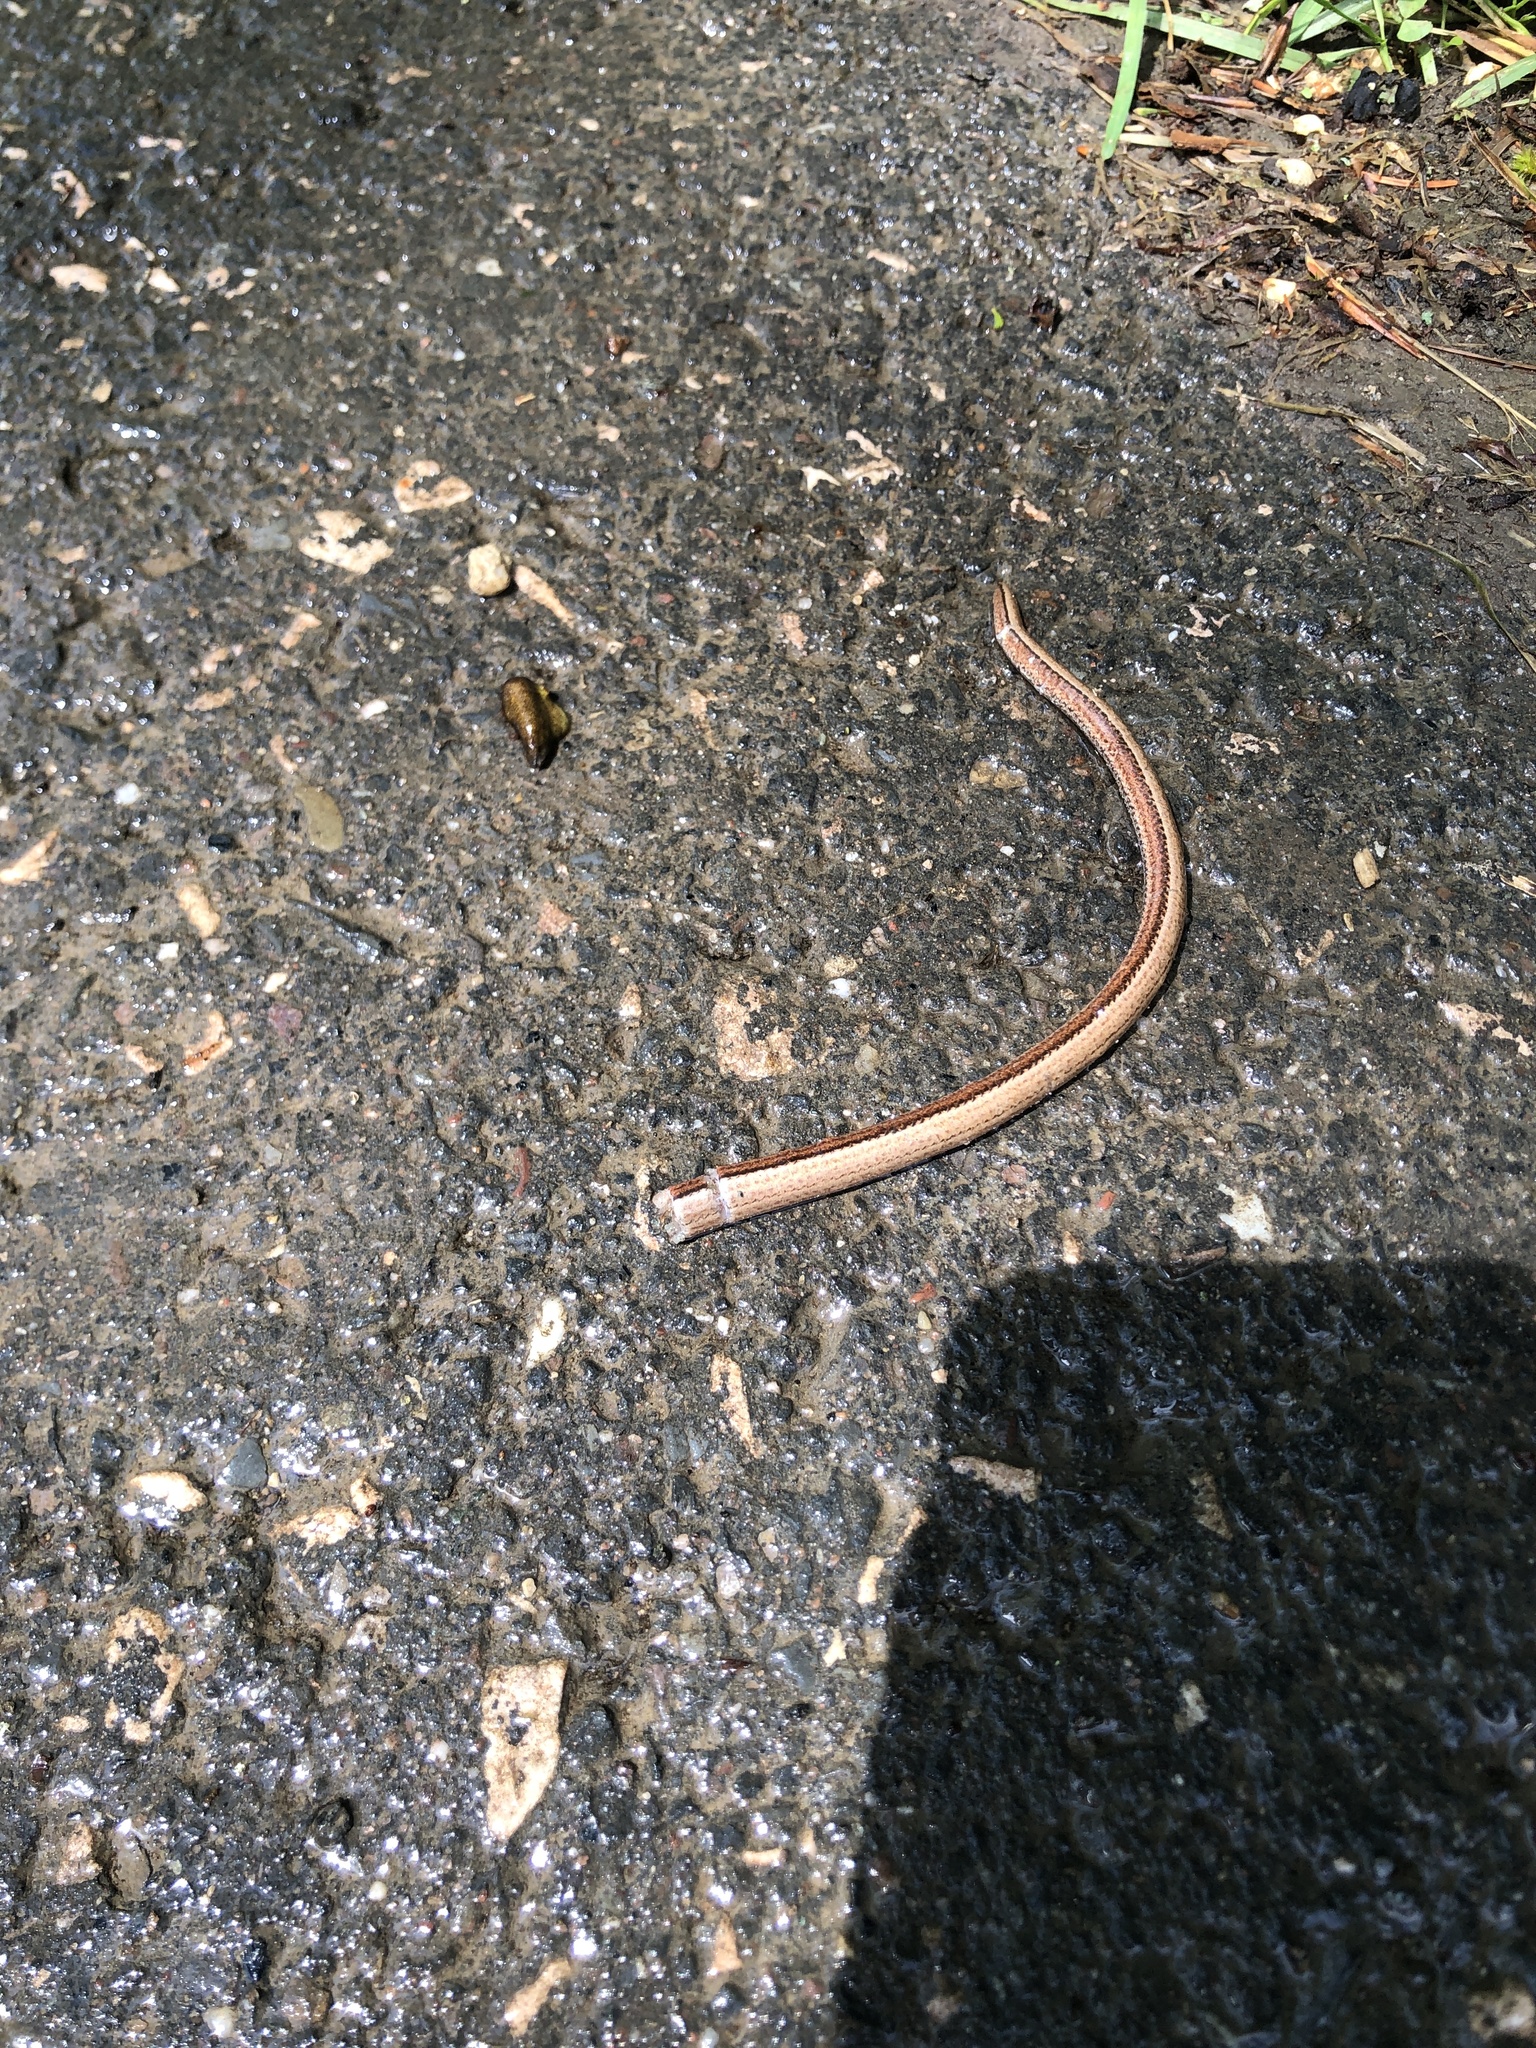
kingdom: Animalia
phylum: Chordata
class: Squamata
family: Anguidae
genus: Anguis
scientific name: Anguis fragilis
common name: Slow worm
